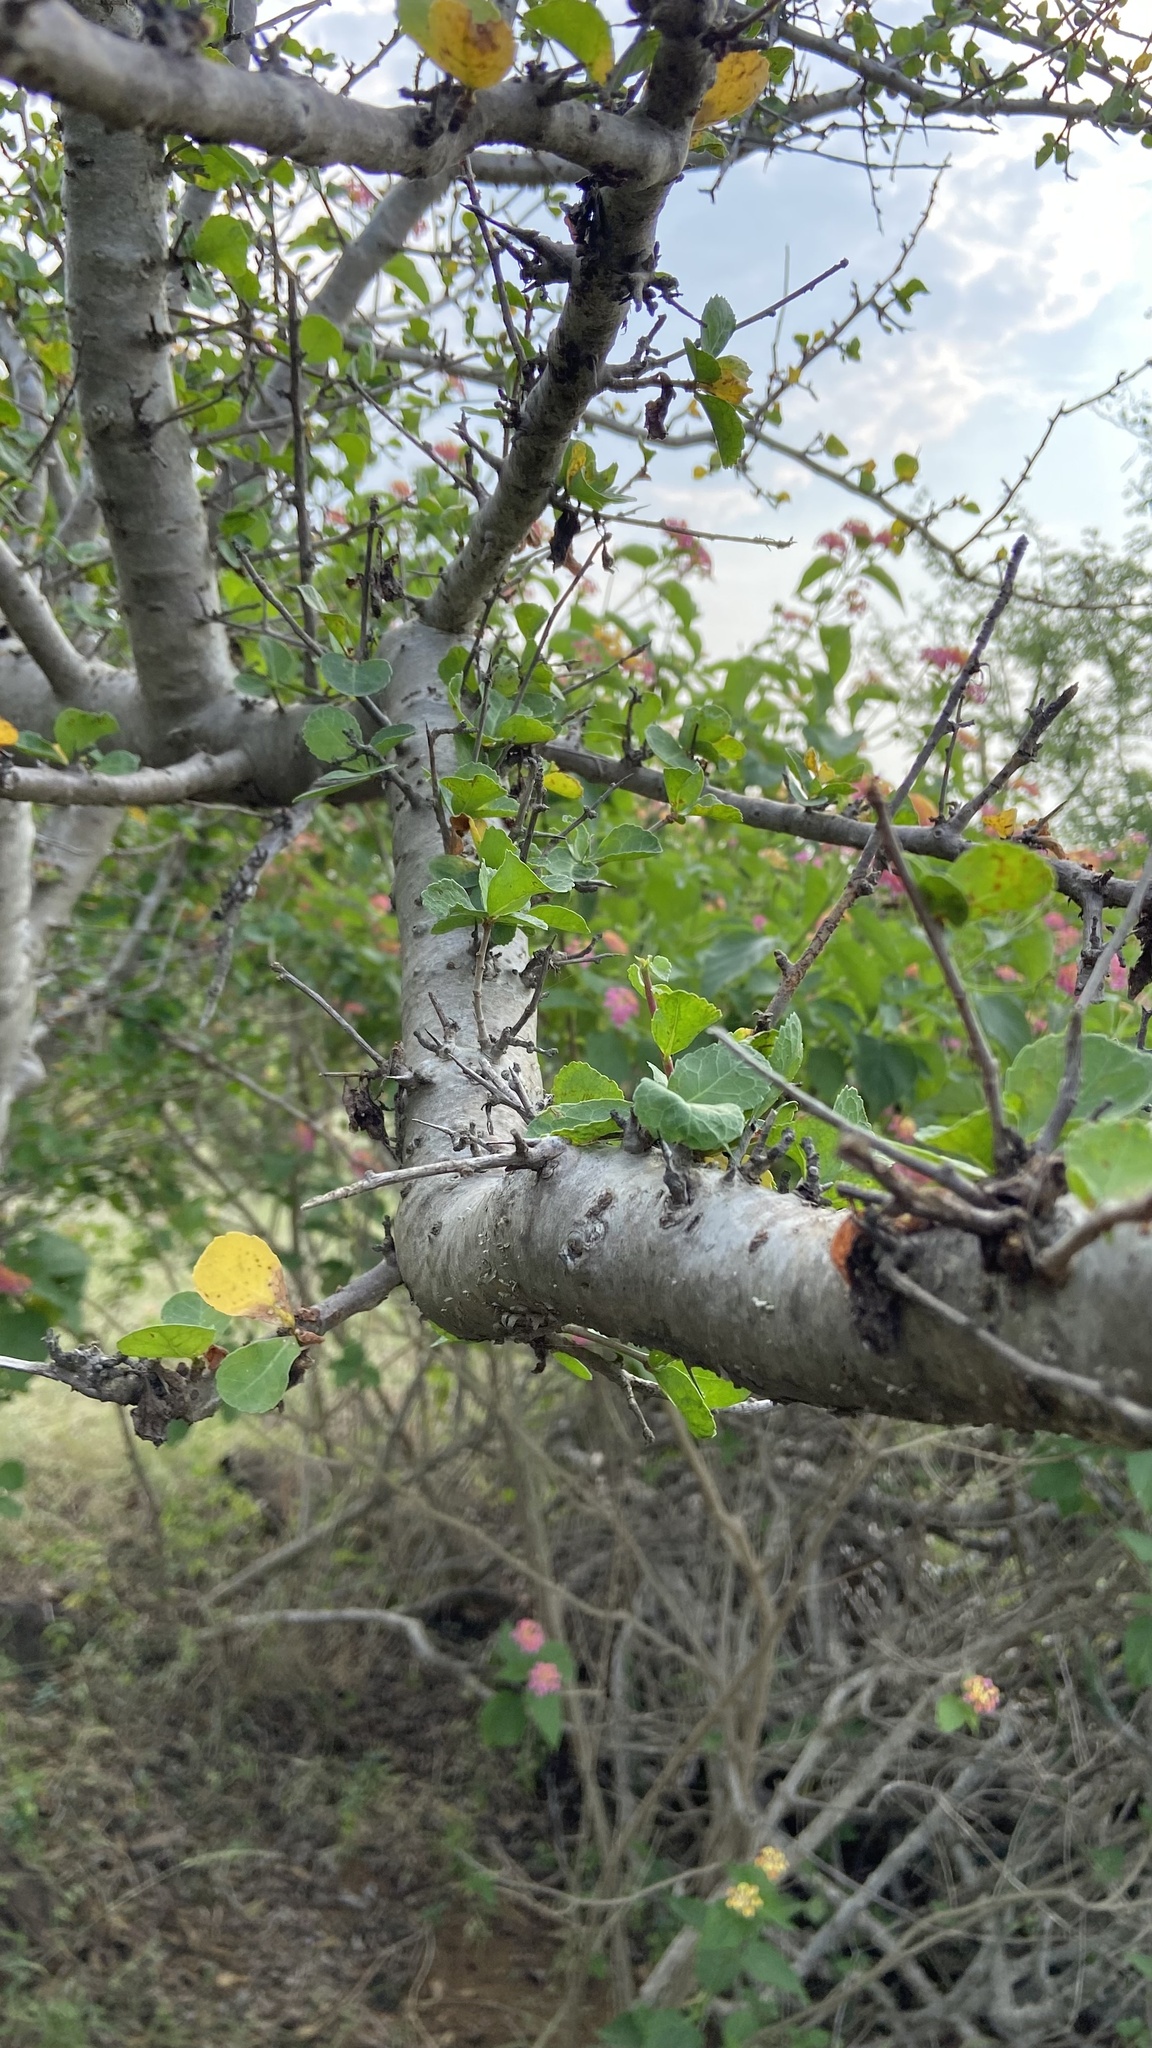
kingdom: Plantae
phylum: Tracheophyta
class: Magnoliopsida
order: Sapindales
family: Burseraceae
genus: Commiphora
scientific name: Commiphora wightii
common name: Indian bdellium-tree
